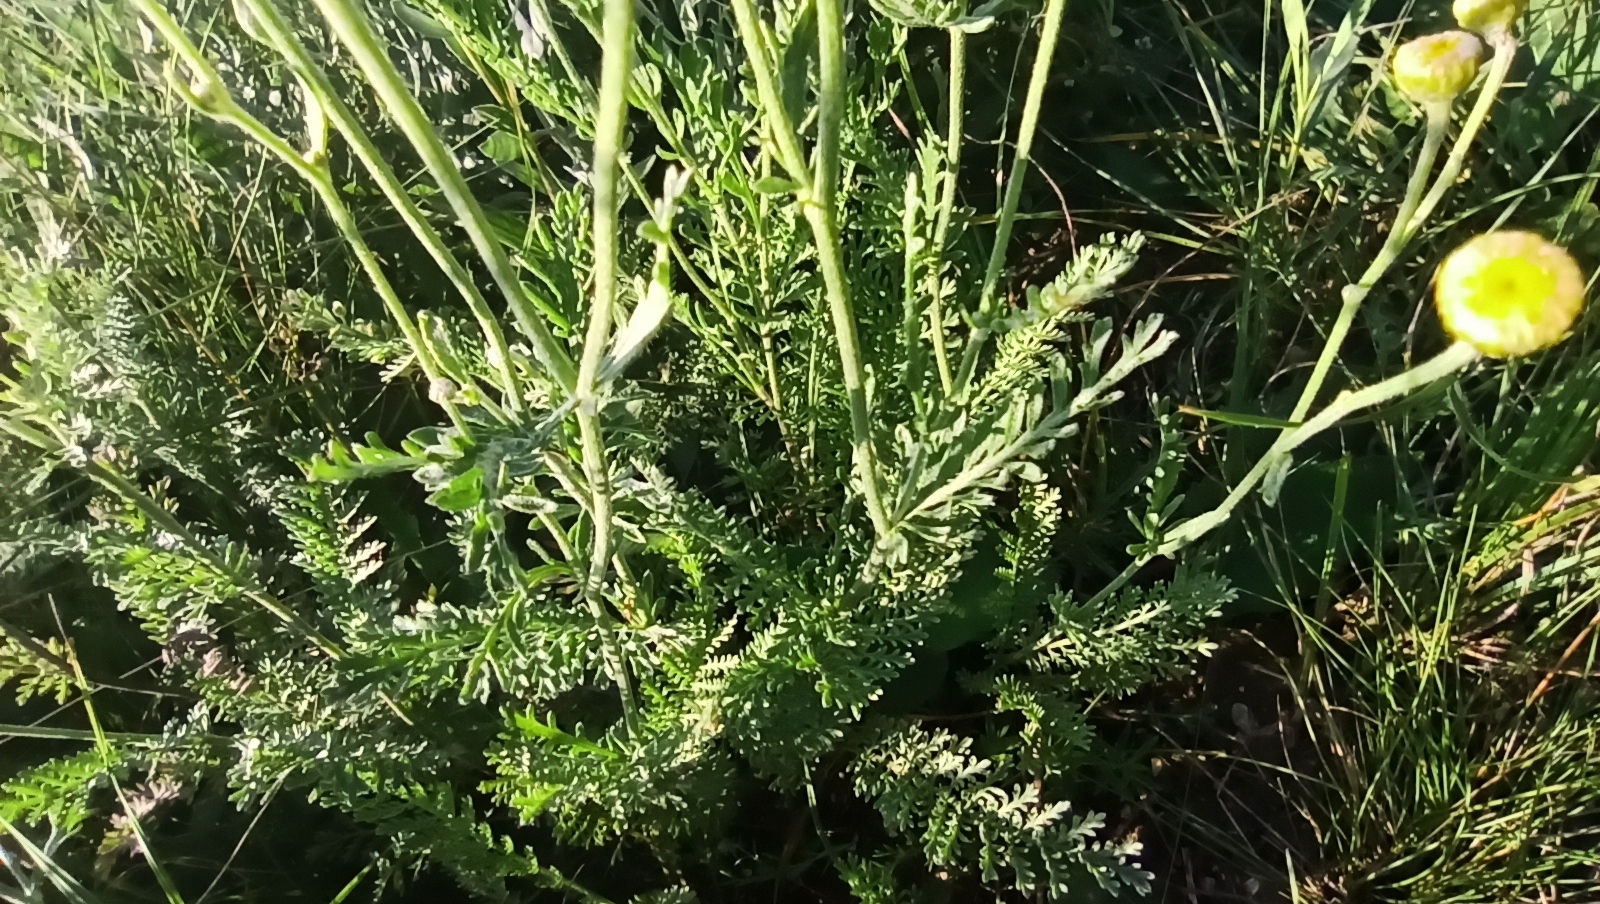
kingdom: Plantae
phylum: Tracheophyta
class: Magnoliopsida
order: Asterales
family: Asteraceae
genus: Tanacetum
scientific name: Tanacetum achilleifolium
